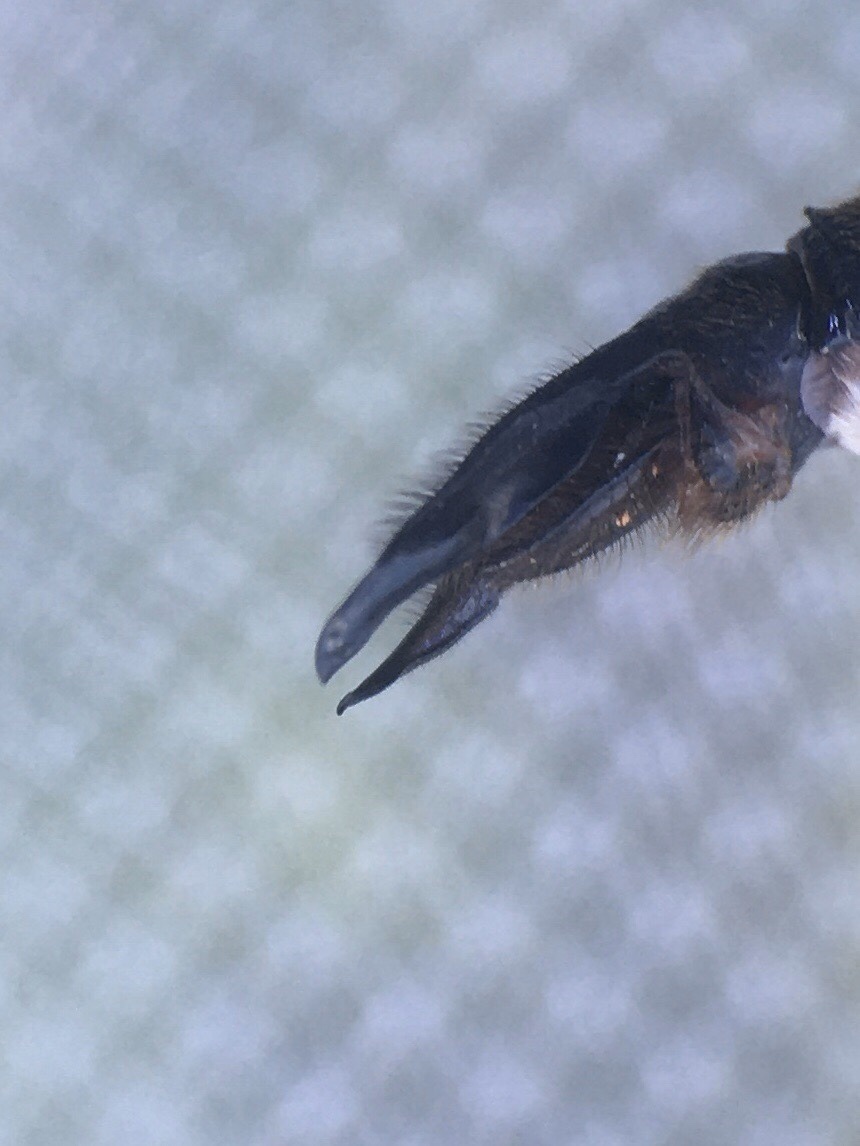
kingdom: Animalia
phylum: Arthropoda
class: Insecta
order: Odonata
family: Corduliidae
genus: Somatochlora
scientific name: Somatochlora incurvata
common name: Incurvate emerald
